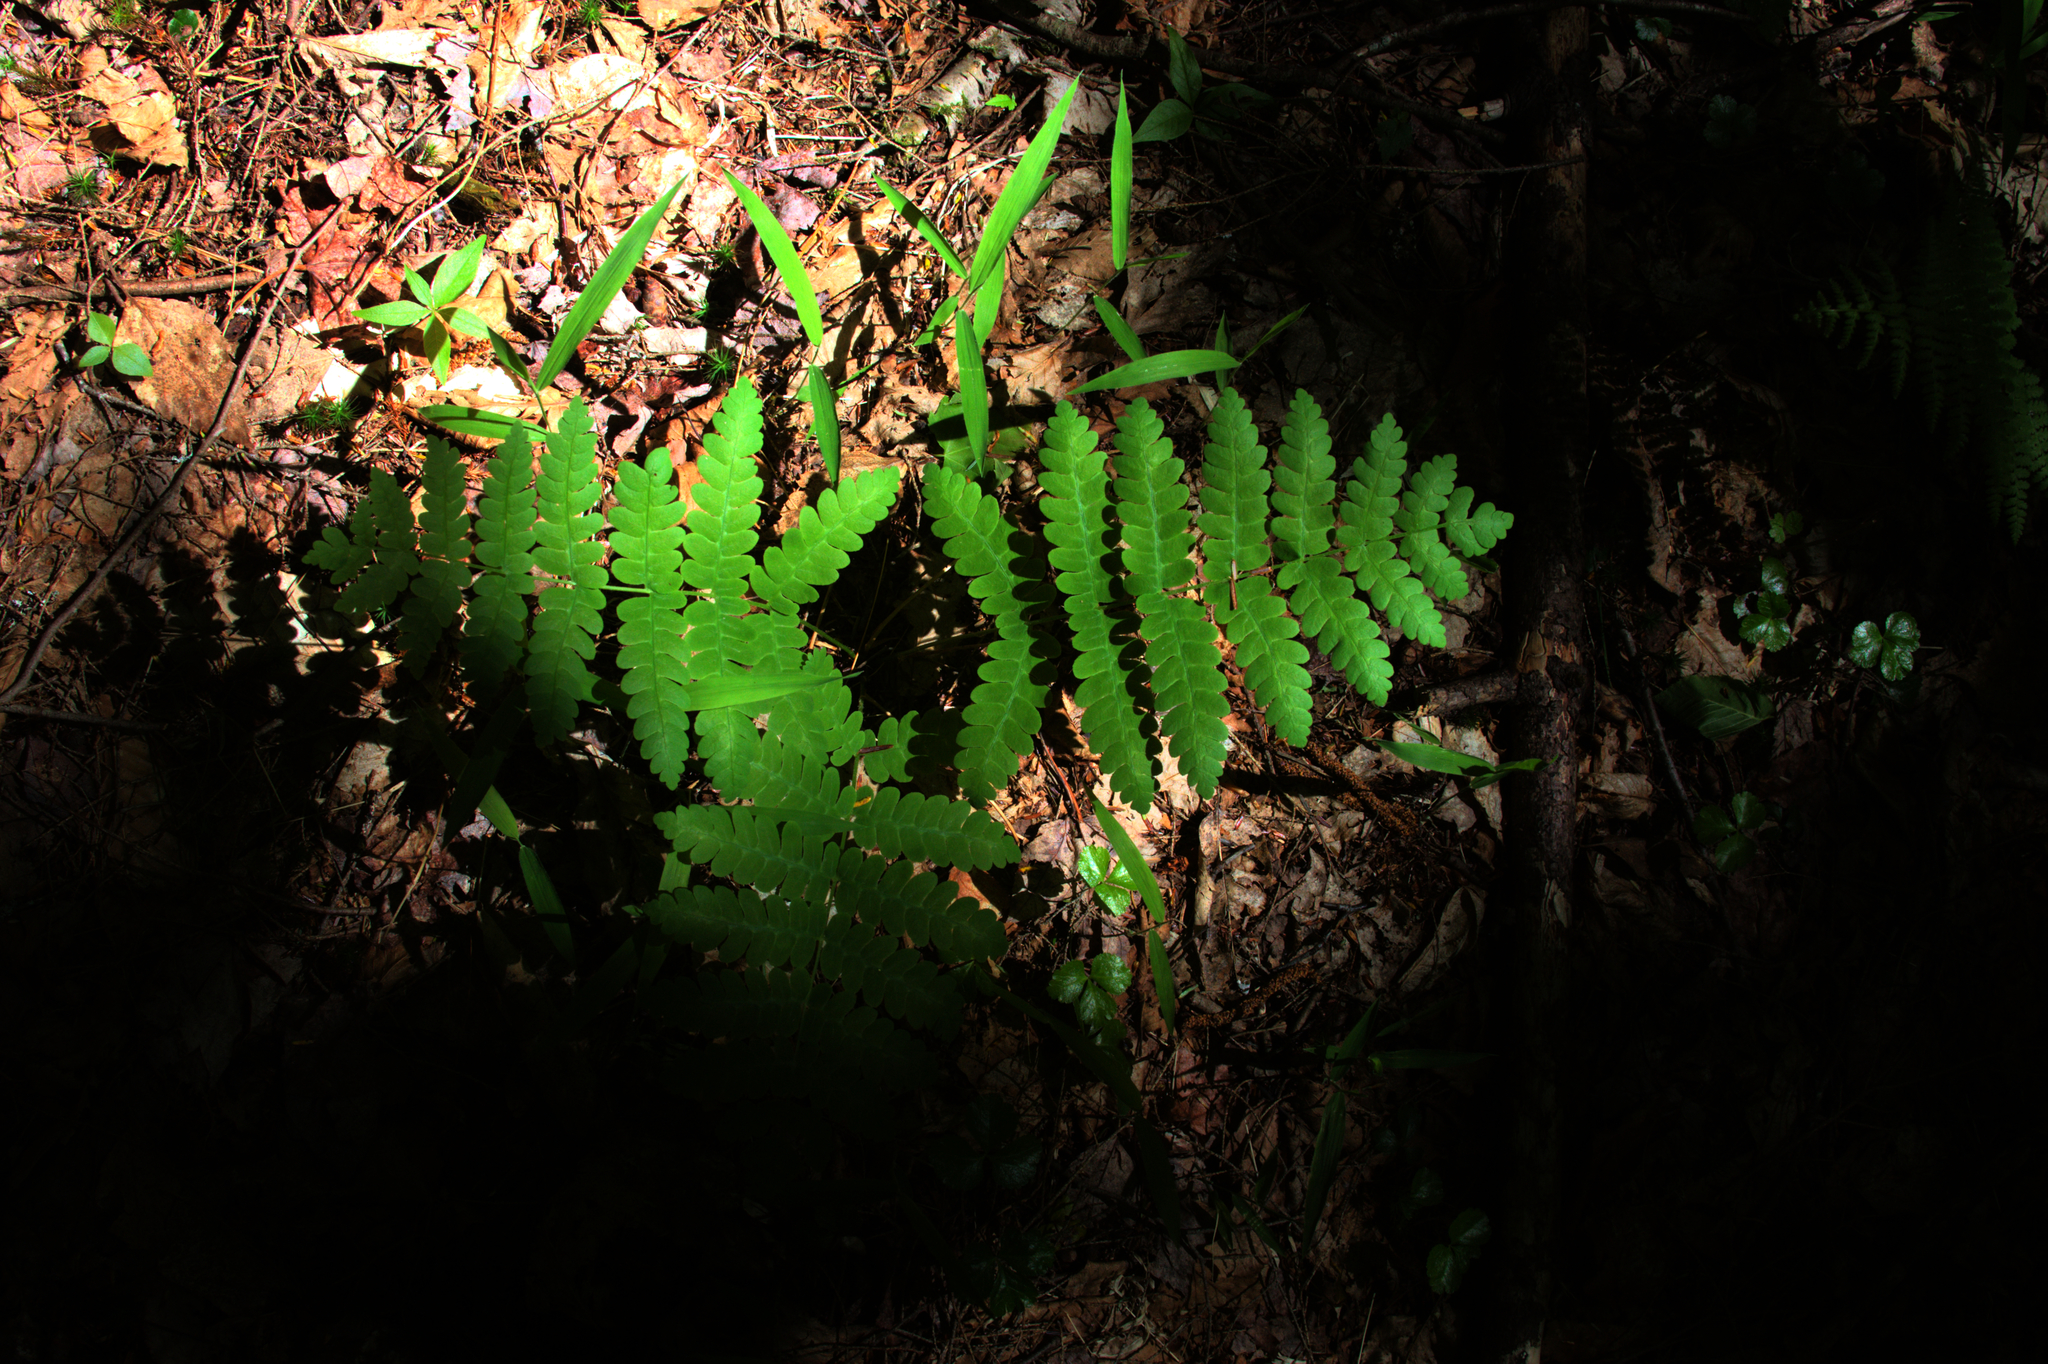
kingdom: Plantae
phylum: Tracheophyta
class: Polypodiopsida
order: Osmundales
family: Osmundaceae
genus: Claytosmunda
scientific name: Claytosmunda claytoniana
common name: Clayton's fern
